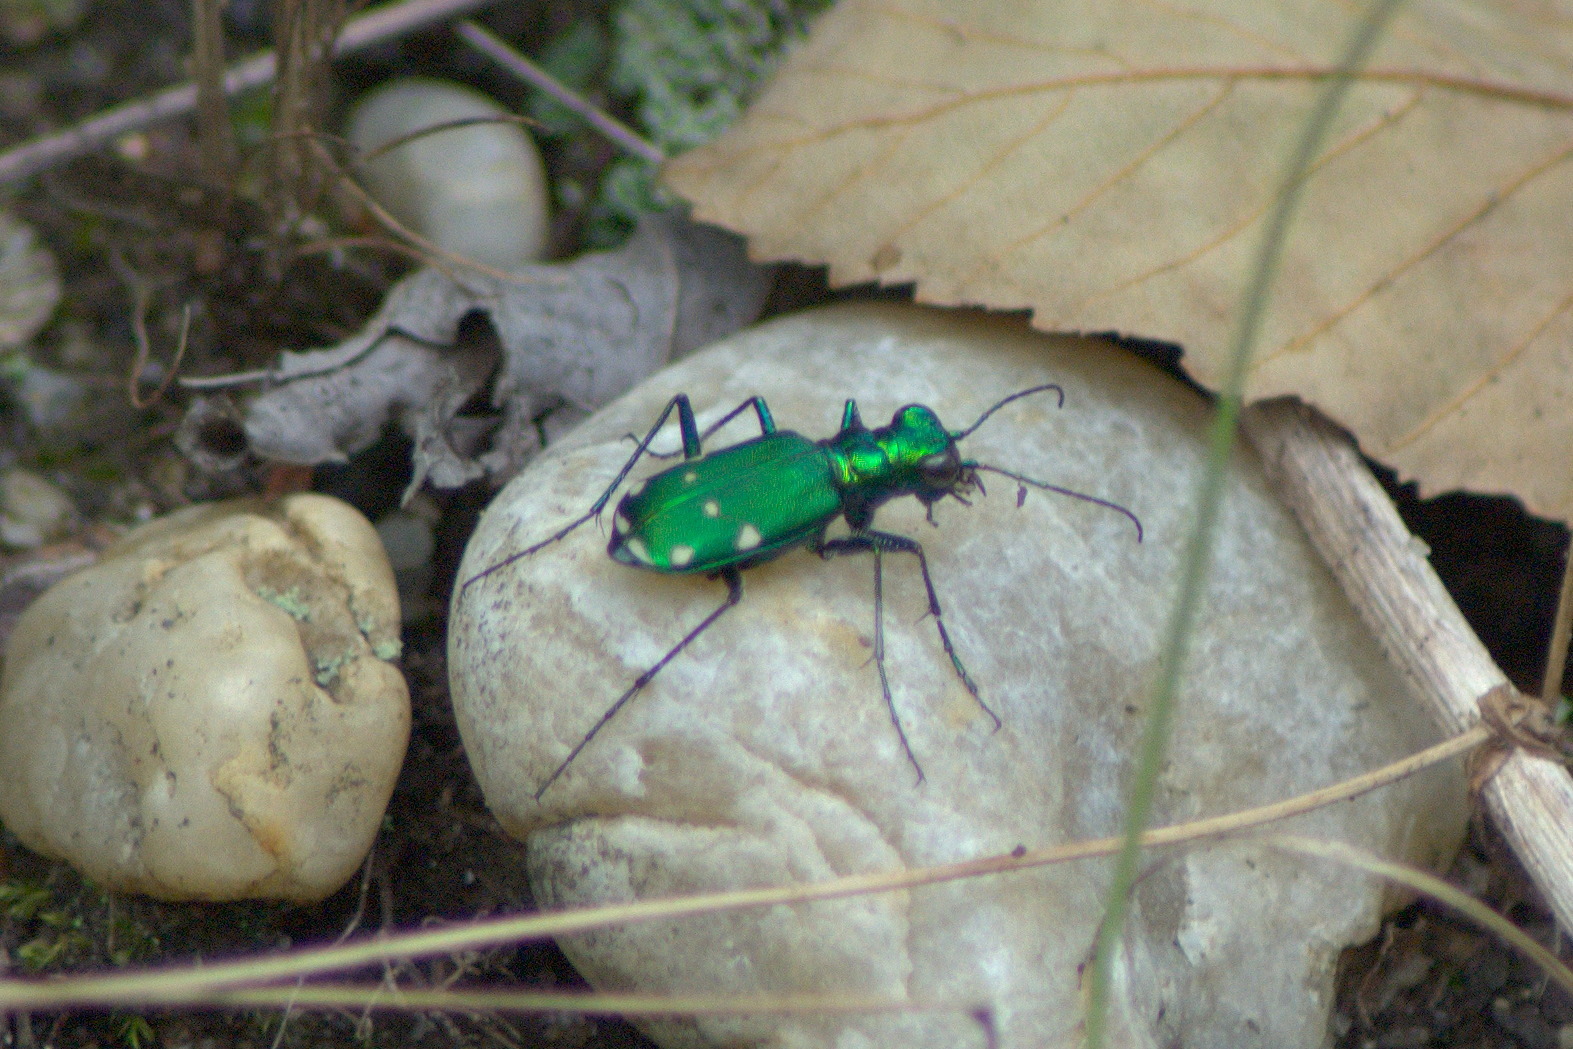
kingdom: Animalia
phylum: Arthropoda
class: Insecta
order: Coleoptera
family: Carabidae
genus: Cicindela
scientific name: Cicindela sexguttata
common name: Six-spotted tiger beetle
